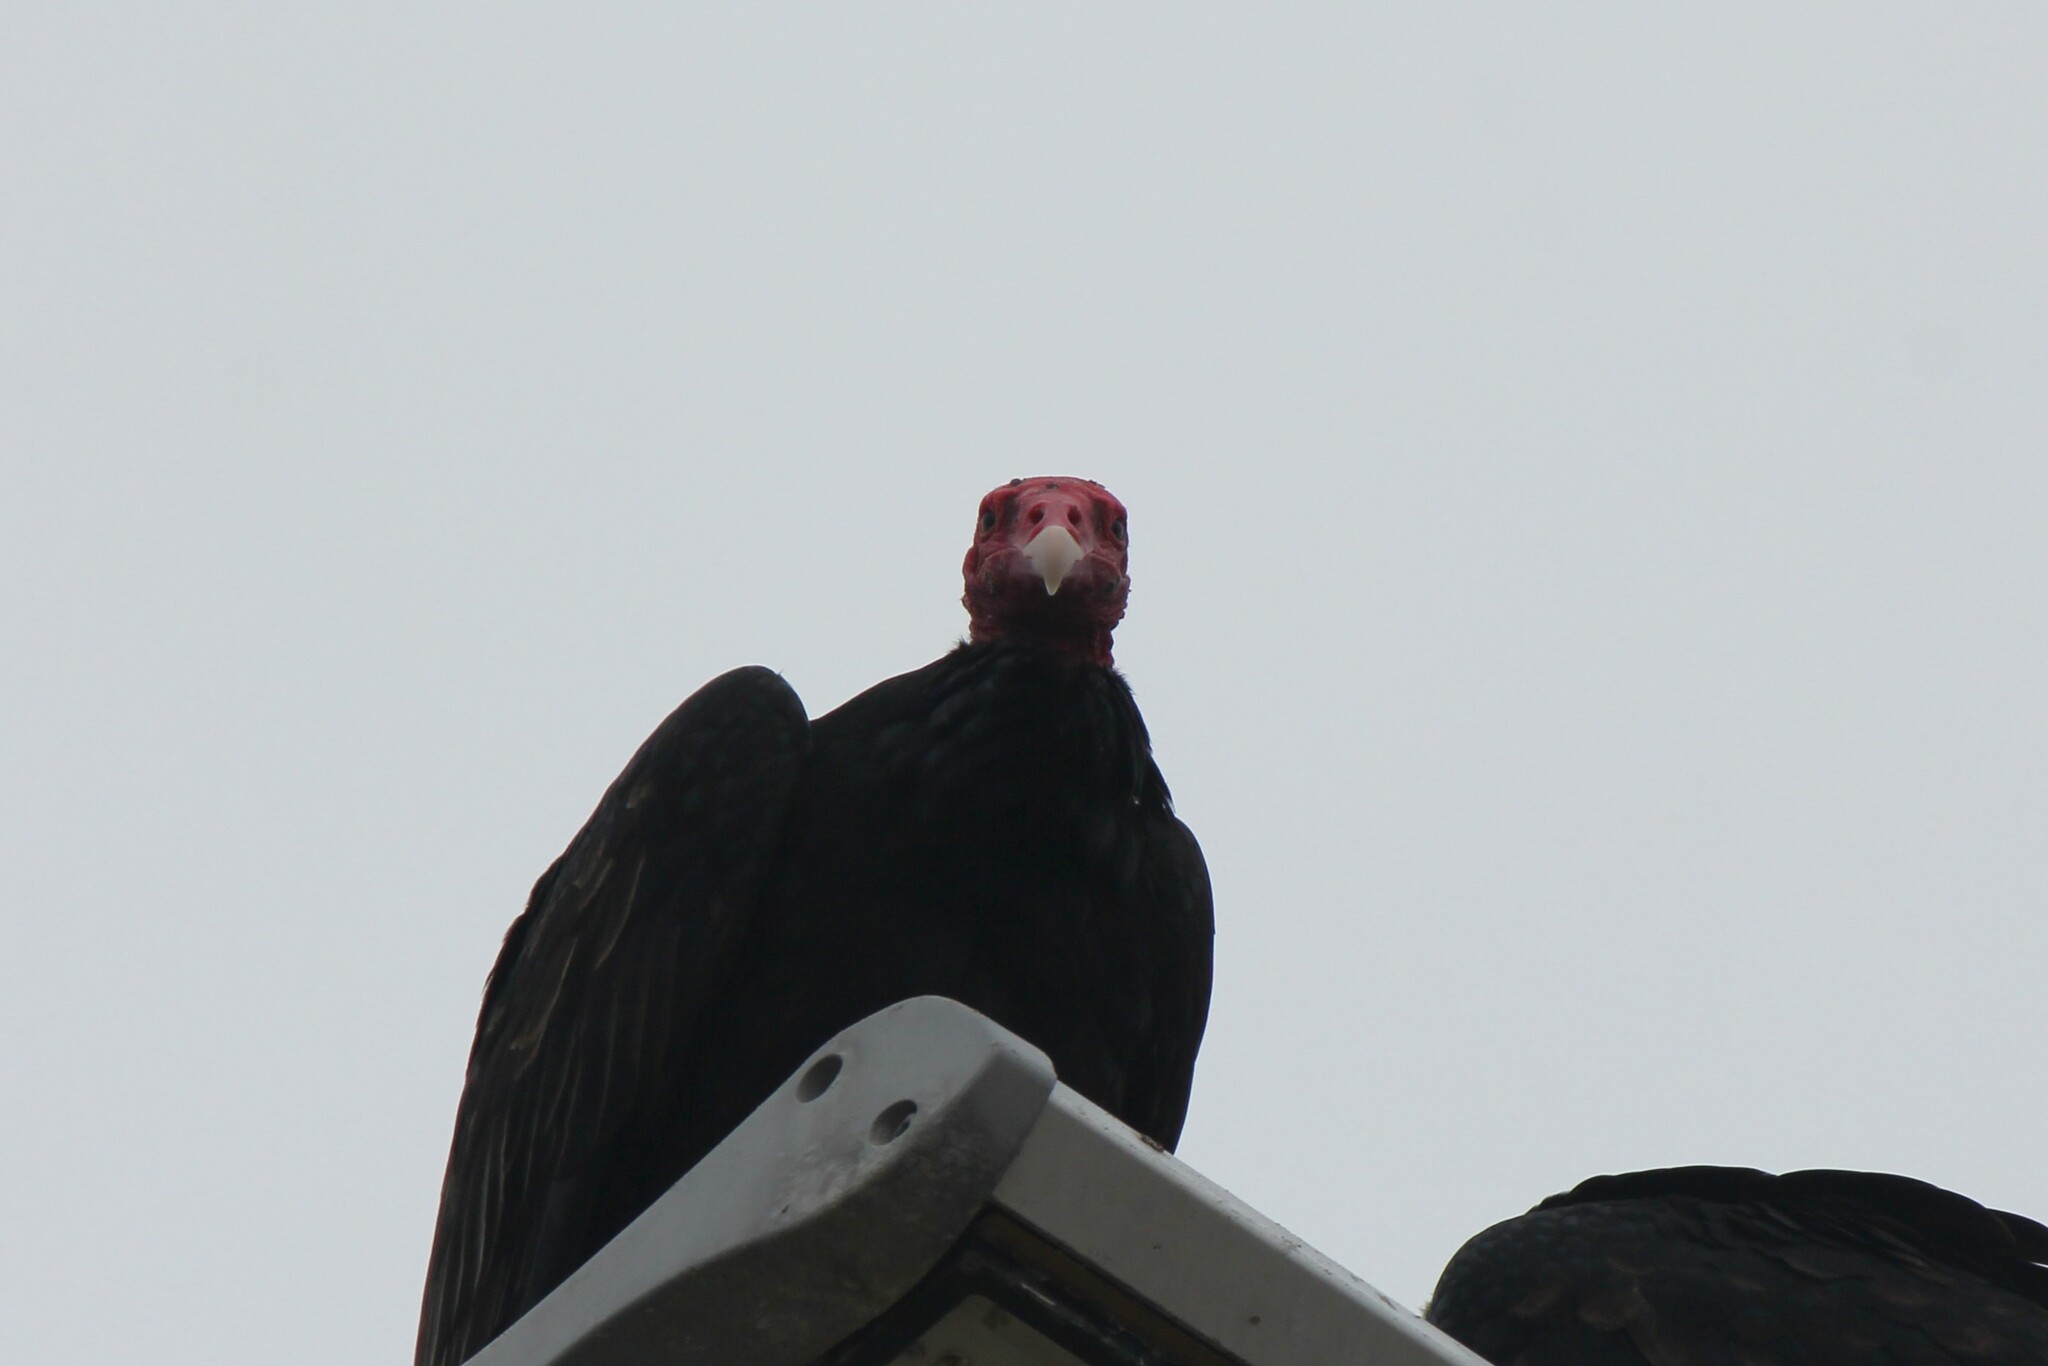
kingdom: Animalia
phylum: Chordata
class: Aves
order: Accipitriformes
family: Cathartidae
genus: Cathartes
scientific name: Cathartes aura
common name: Turkey vulture
